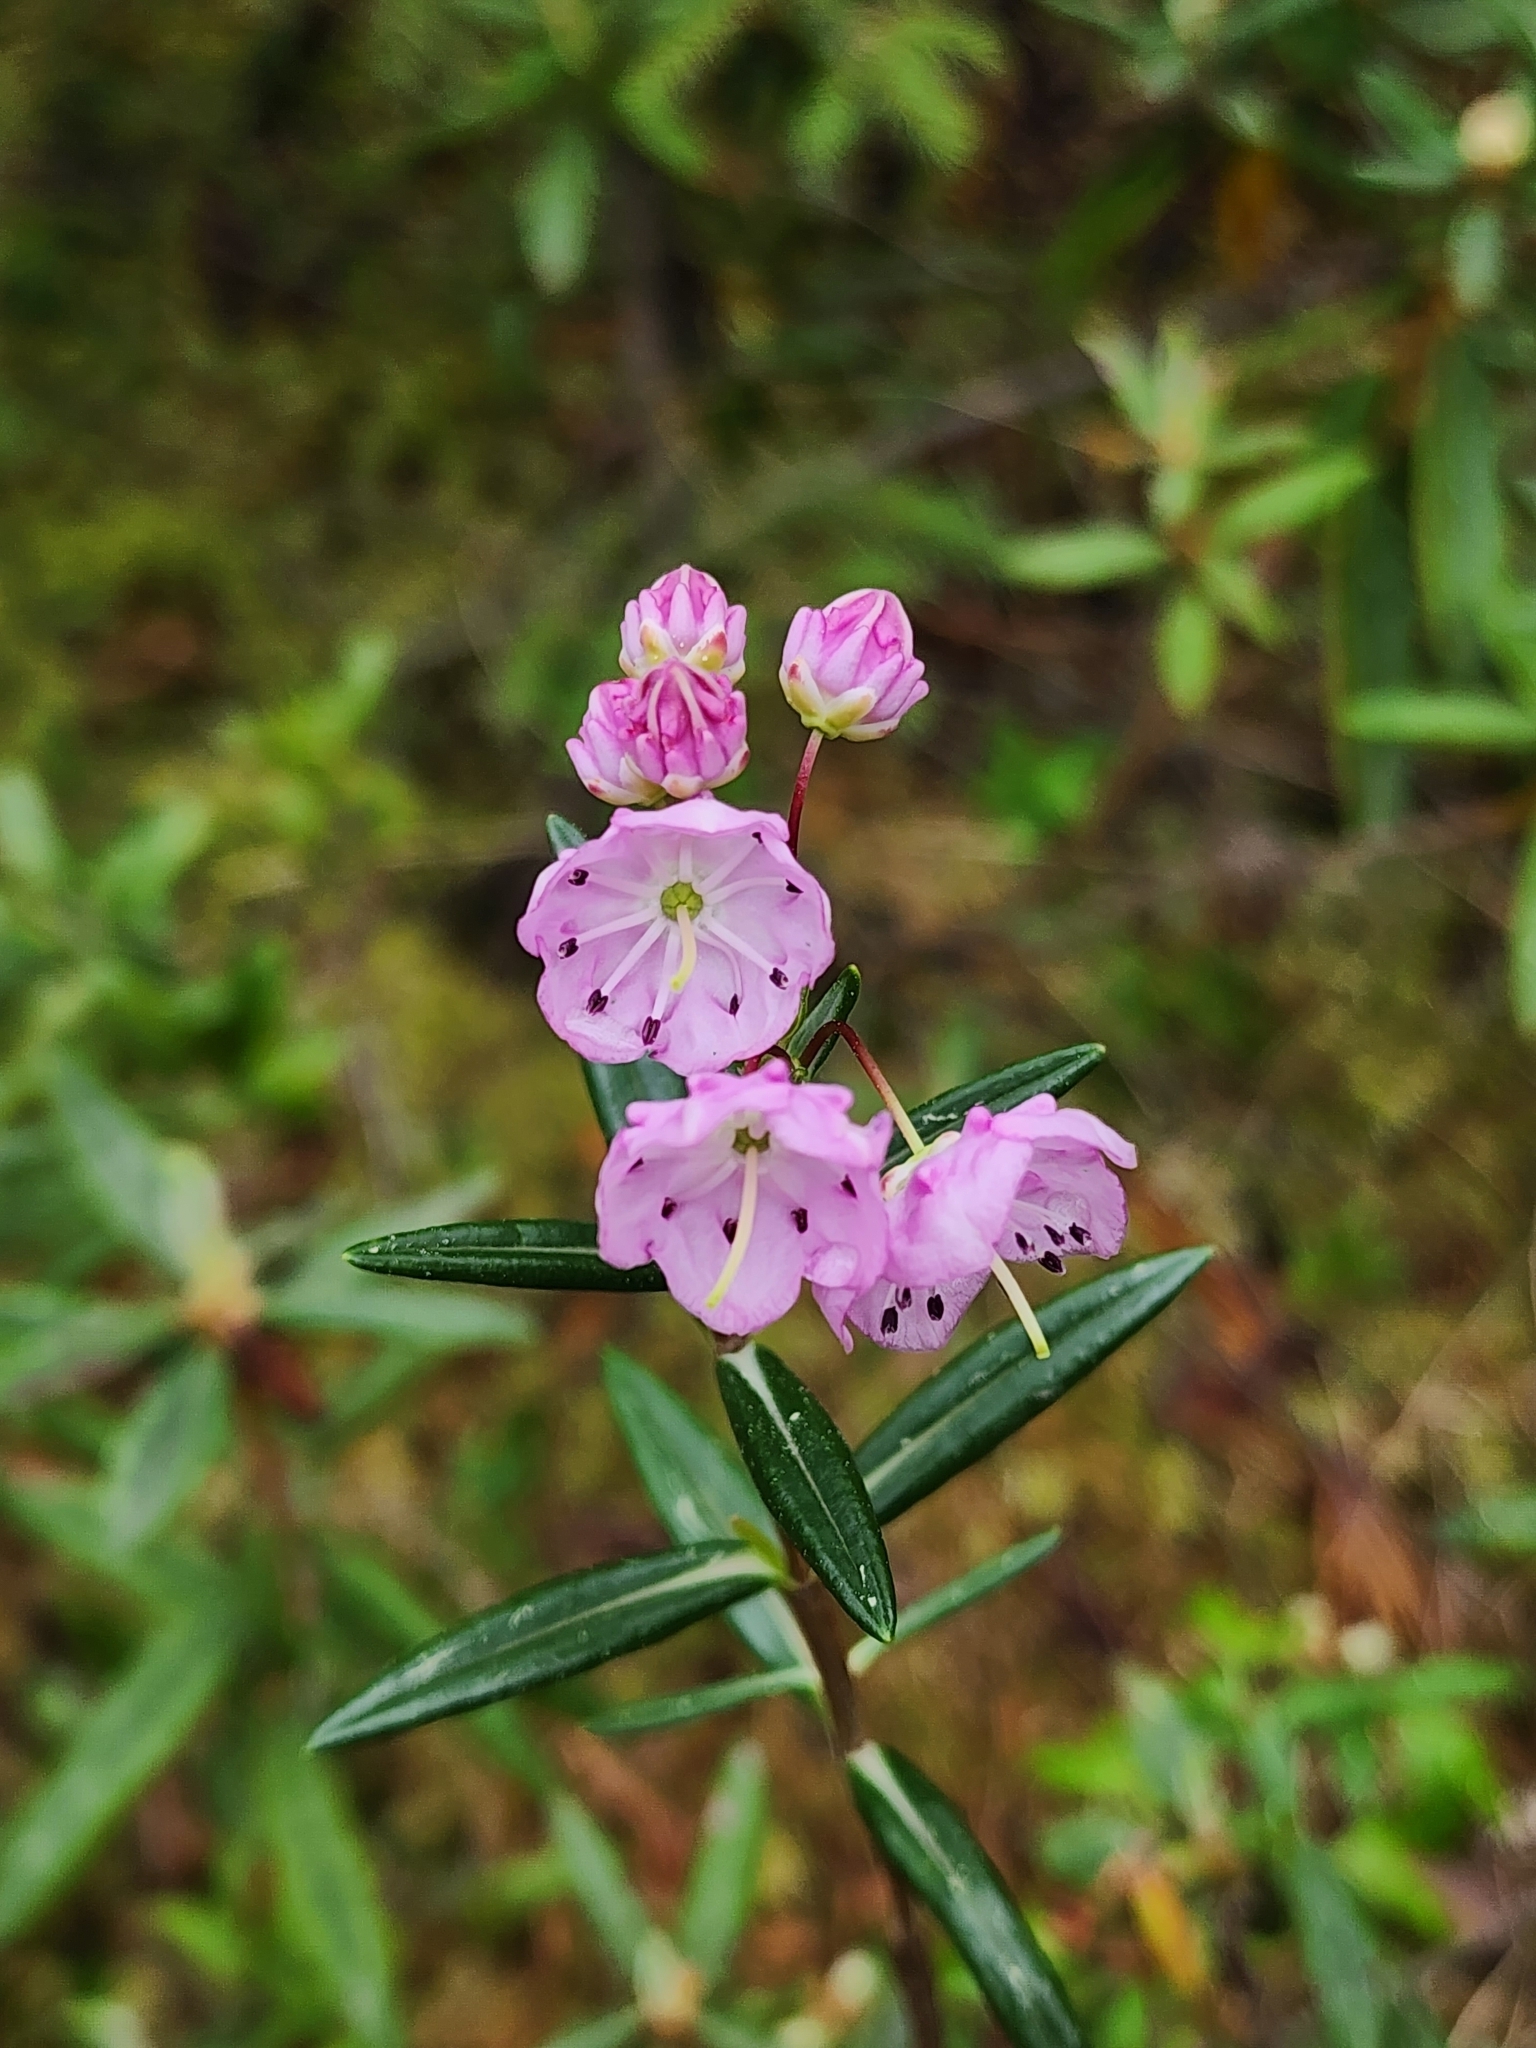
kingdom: Plantae
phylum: Tracheophyta
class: Magnoliopsida
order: Ericales
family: Ericaceae
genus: Kalmia
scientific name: Kalmia polifolia
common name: Bog-laurel
